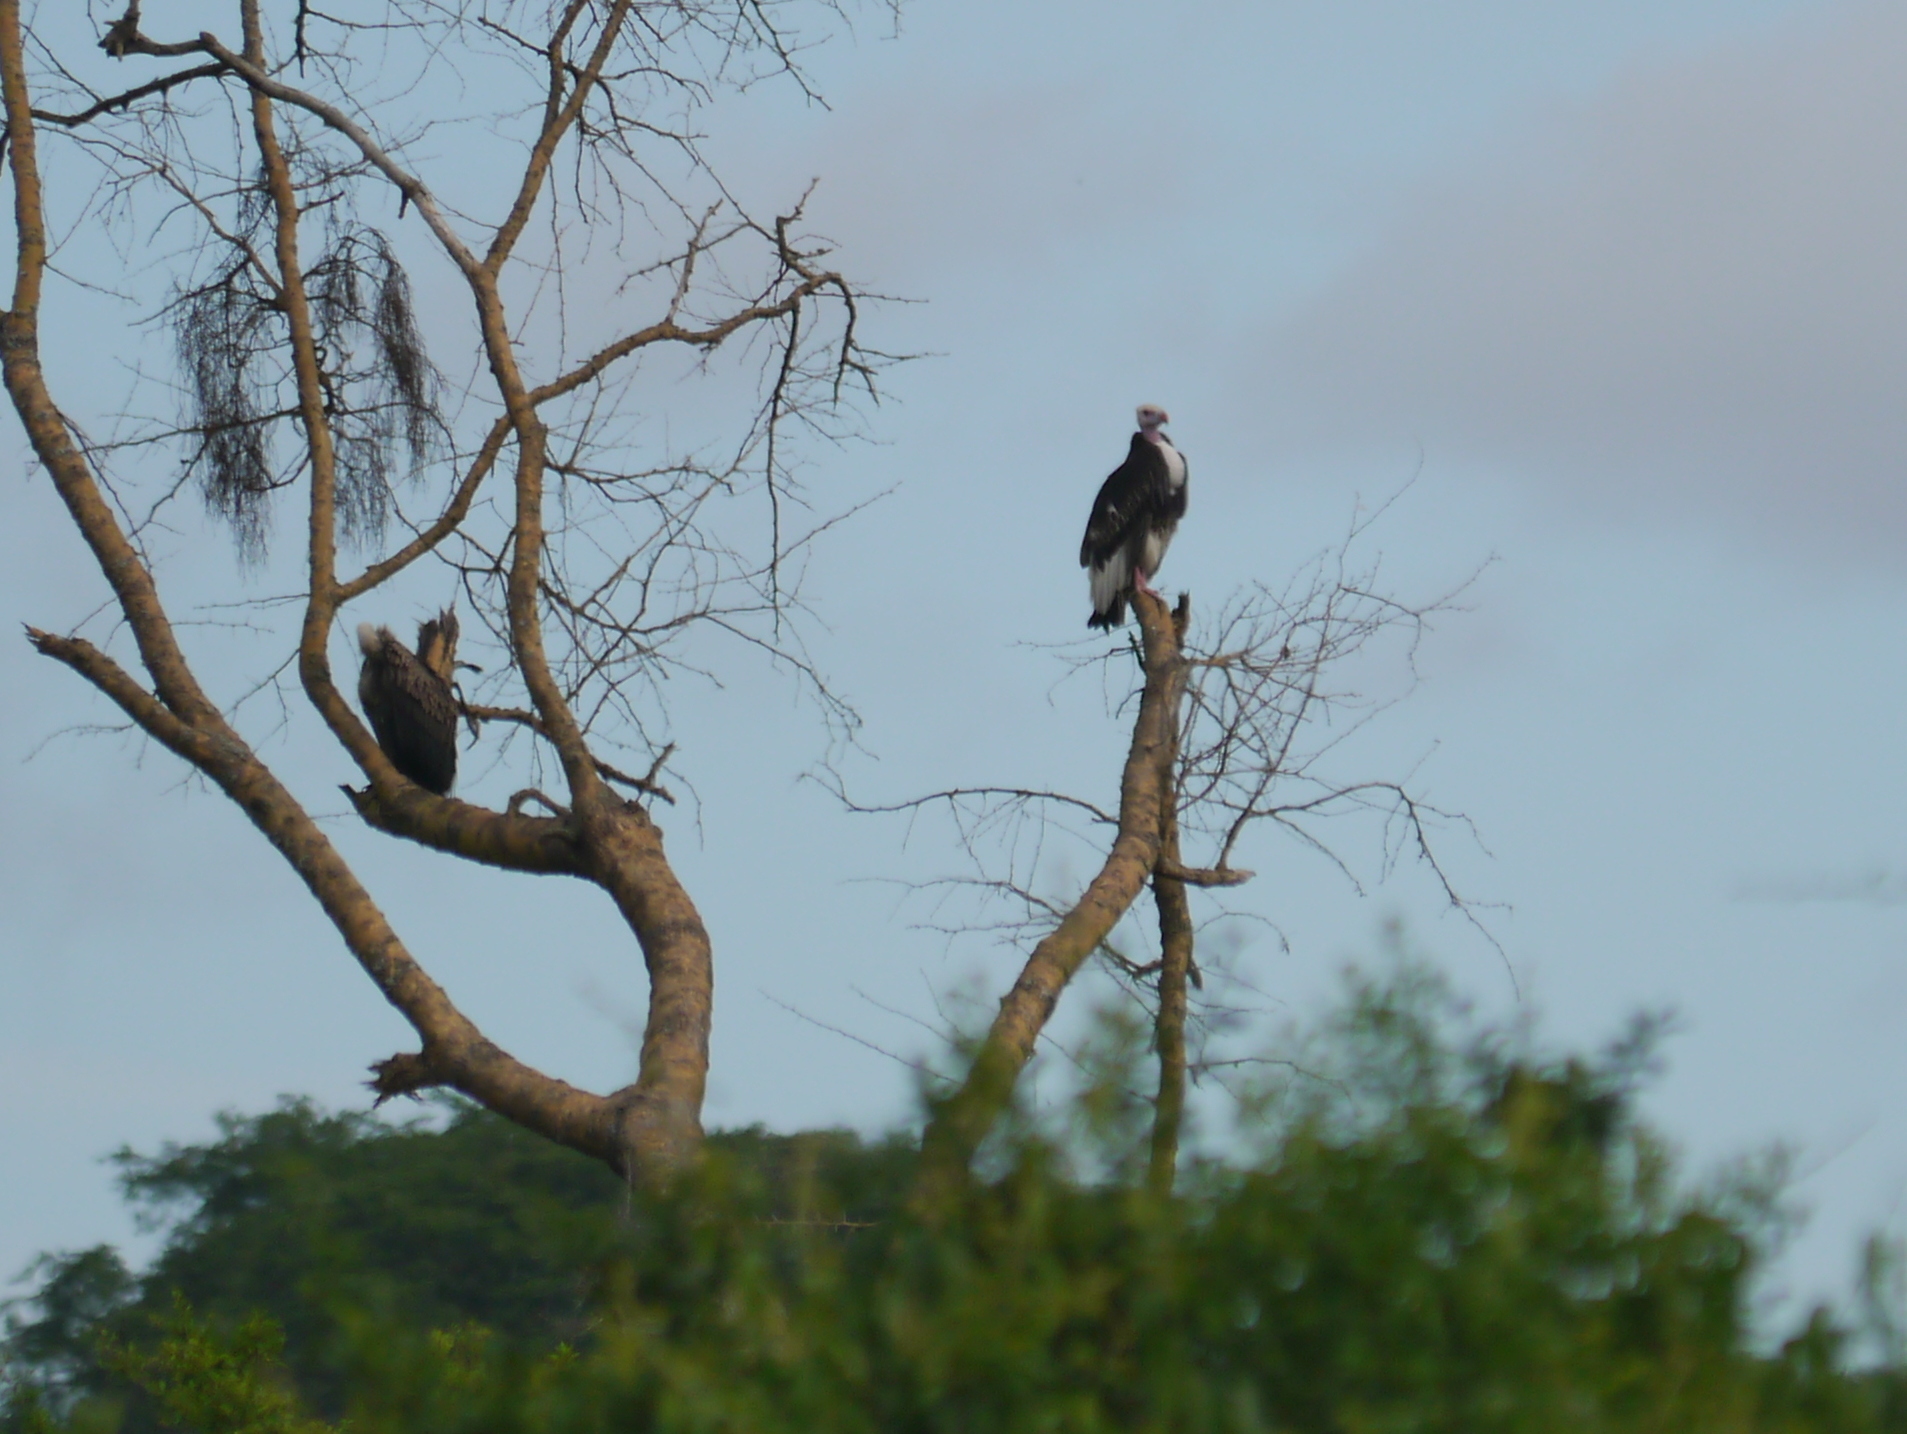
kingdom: Animalia
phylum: Chordata
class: Aves
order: Accipitriformes
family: Accipitridae
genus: Trigonoceps
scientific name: Trigonoceps occipitalis
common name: White-headed vulture
